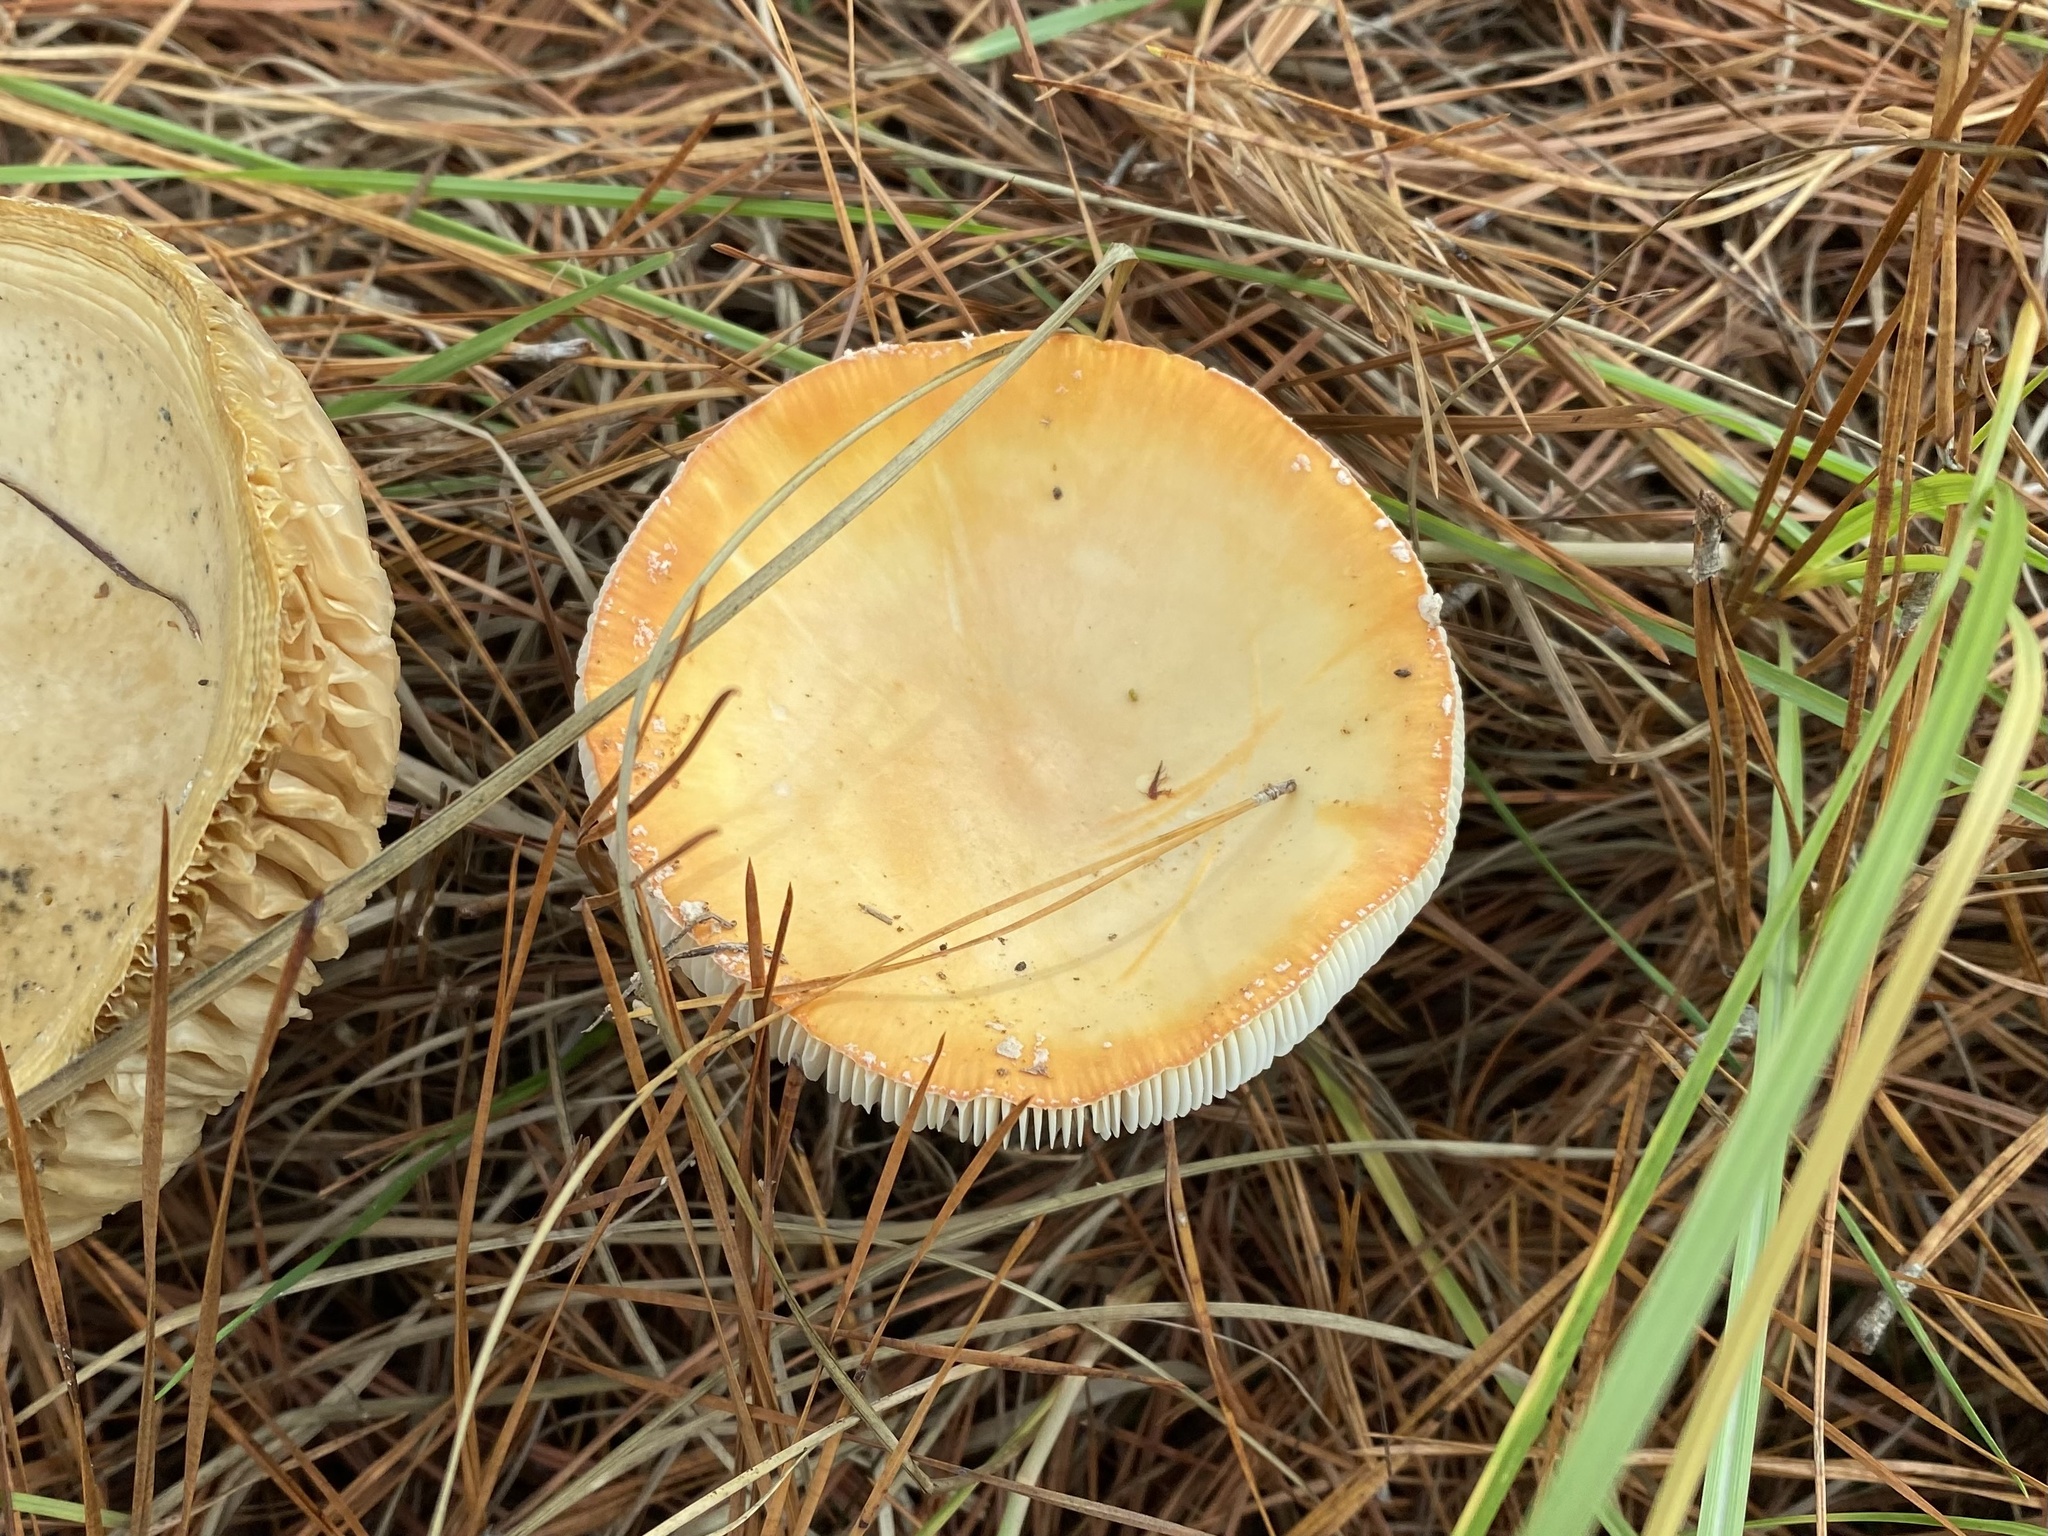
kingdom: Fungi
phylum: Basidiomycota
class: Agaricomycetes
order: Agaricales
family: Amanitaceae
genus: Amanita
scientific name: Amanita persicina
